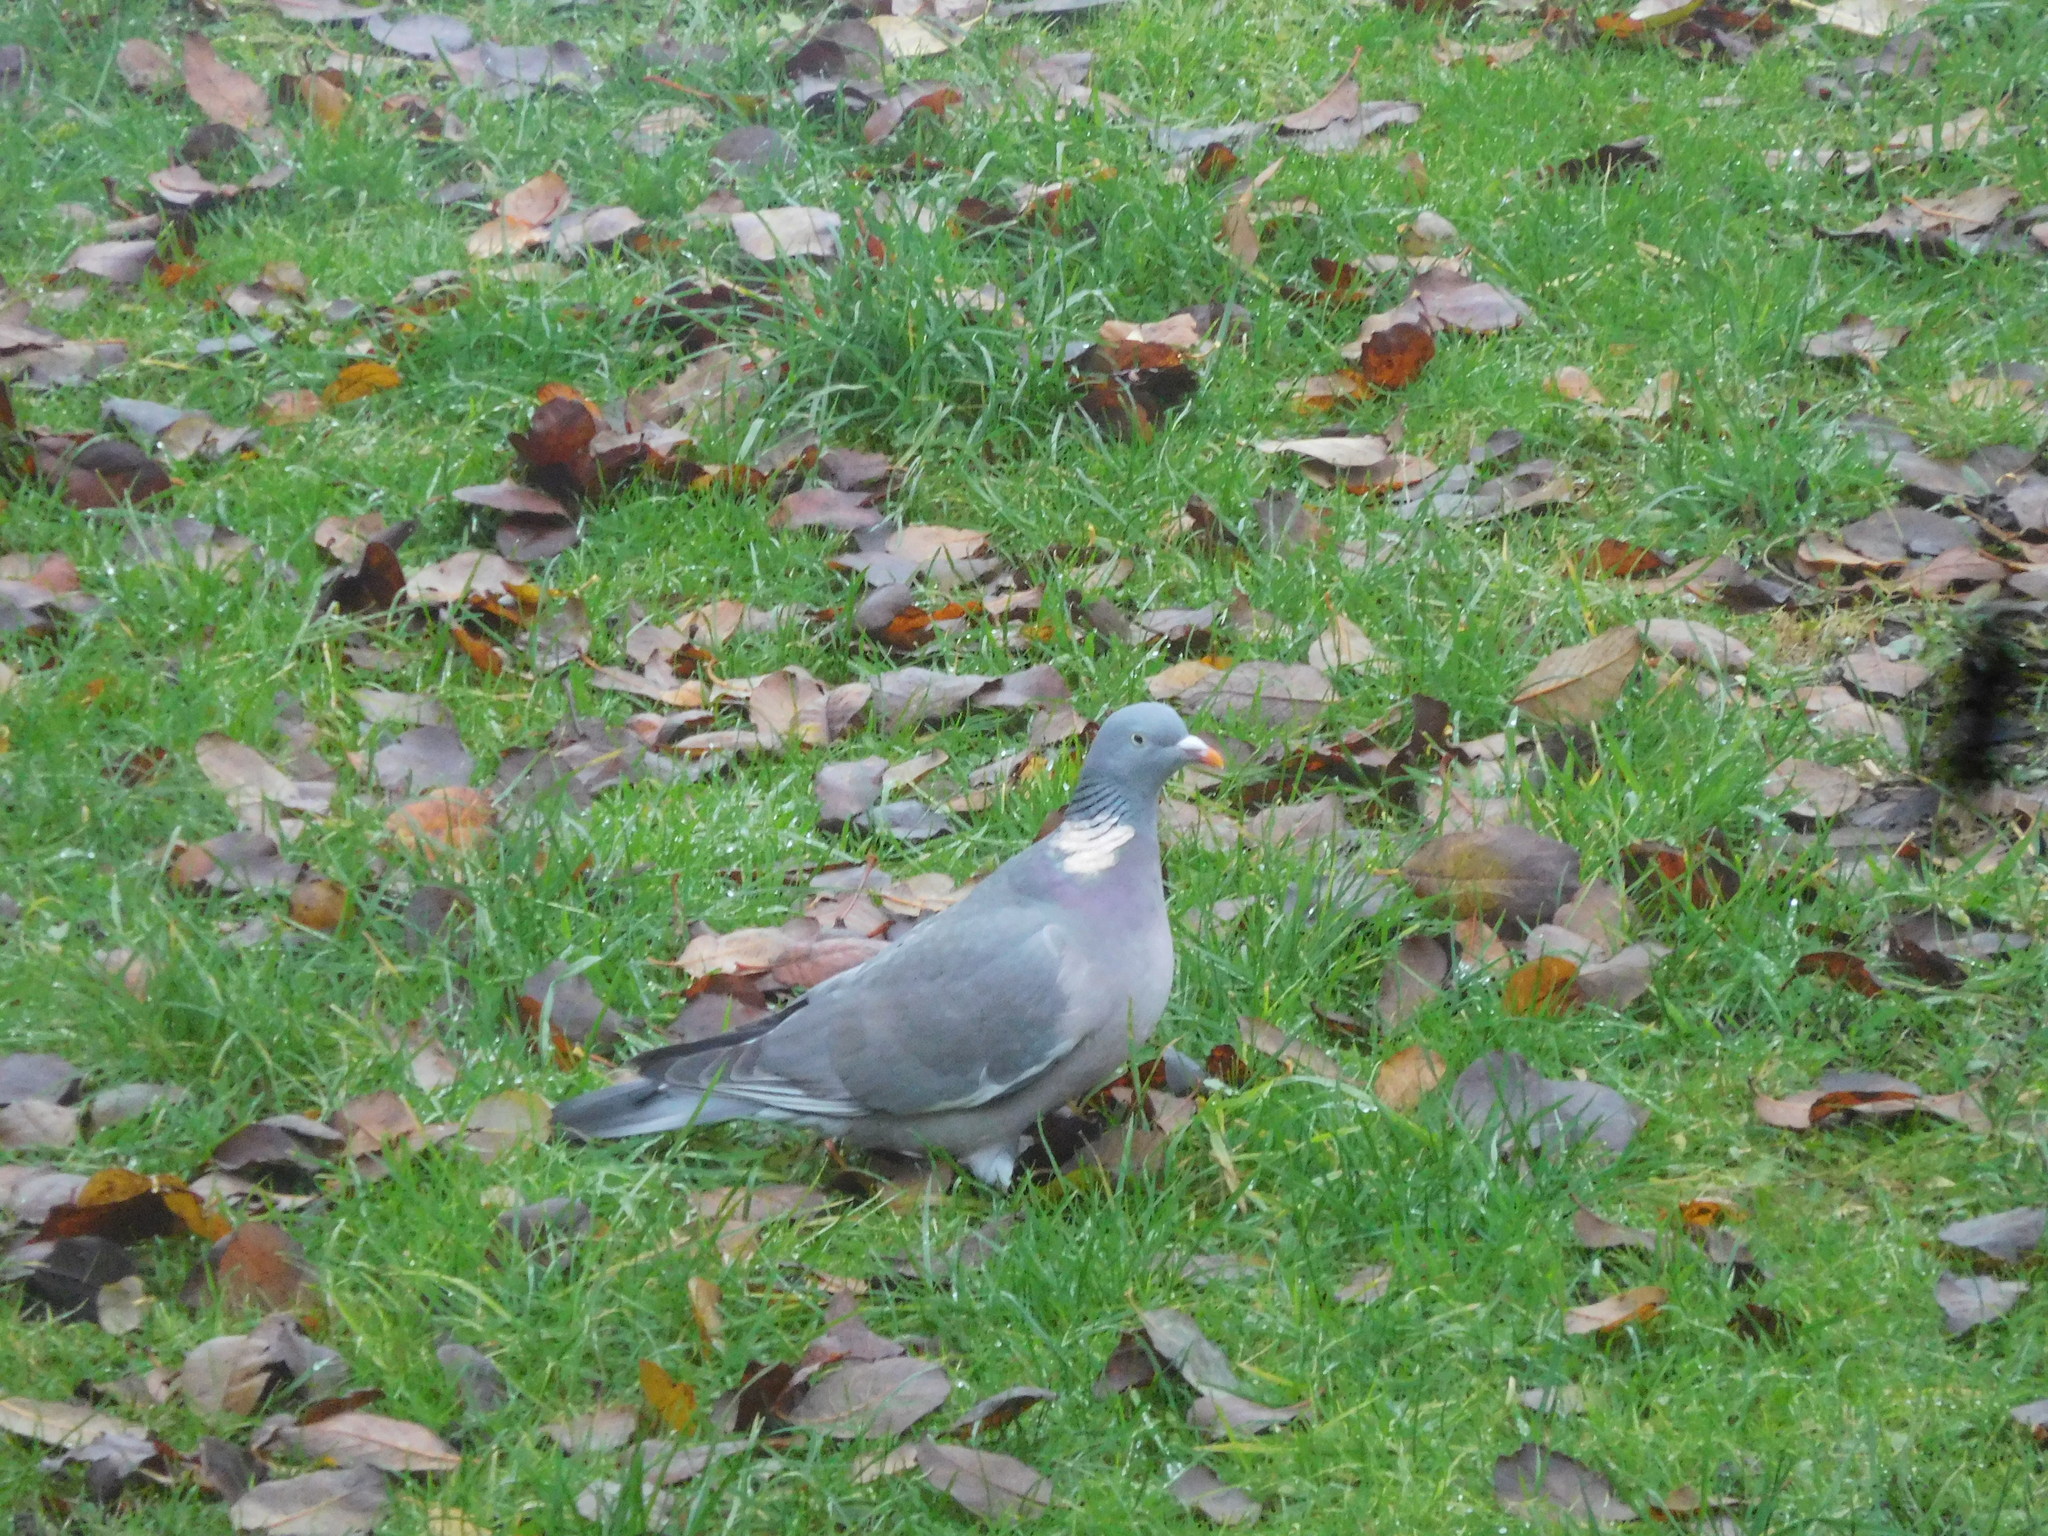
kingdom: Animalia
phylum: Chordata
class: Aves
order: Columbiformes
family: Columbidae
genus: Columba
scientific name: Columba palumbus
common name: Common wood pigeon
